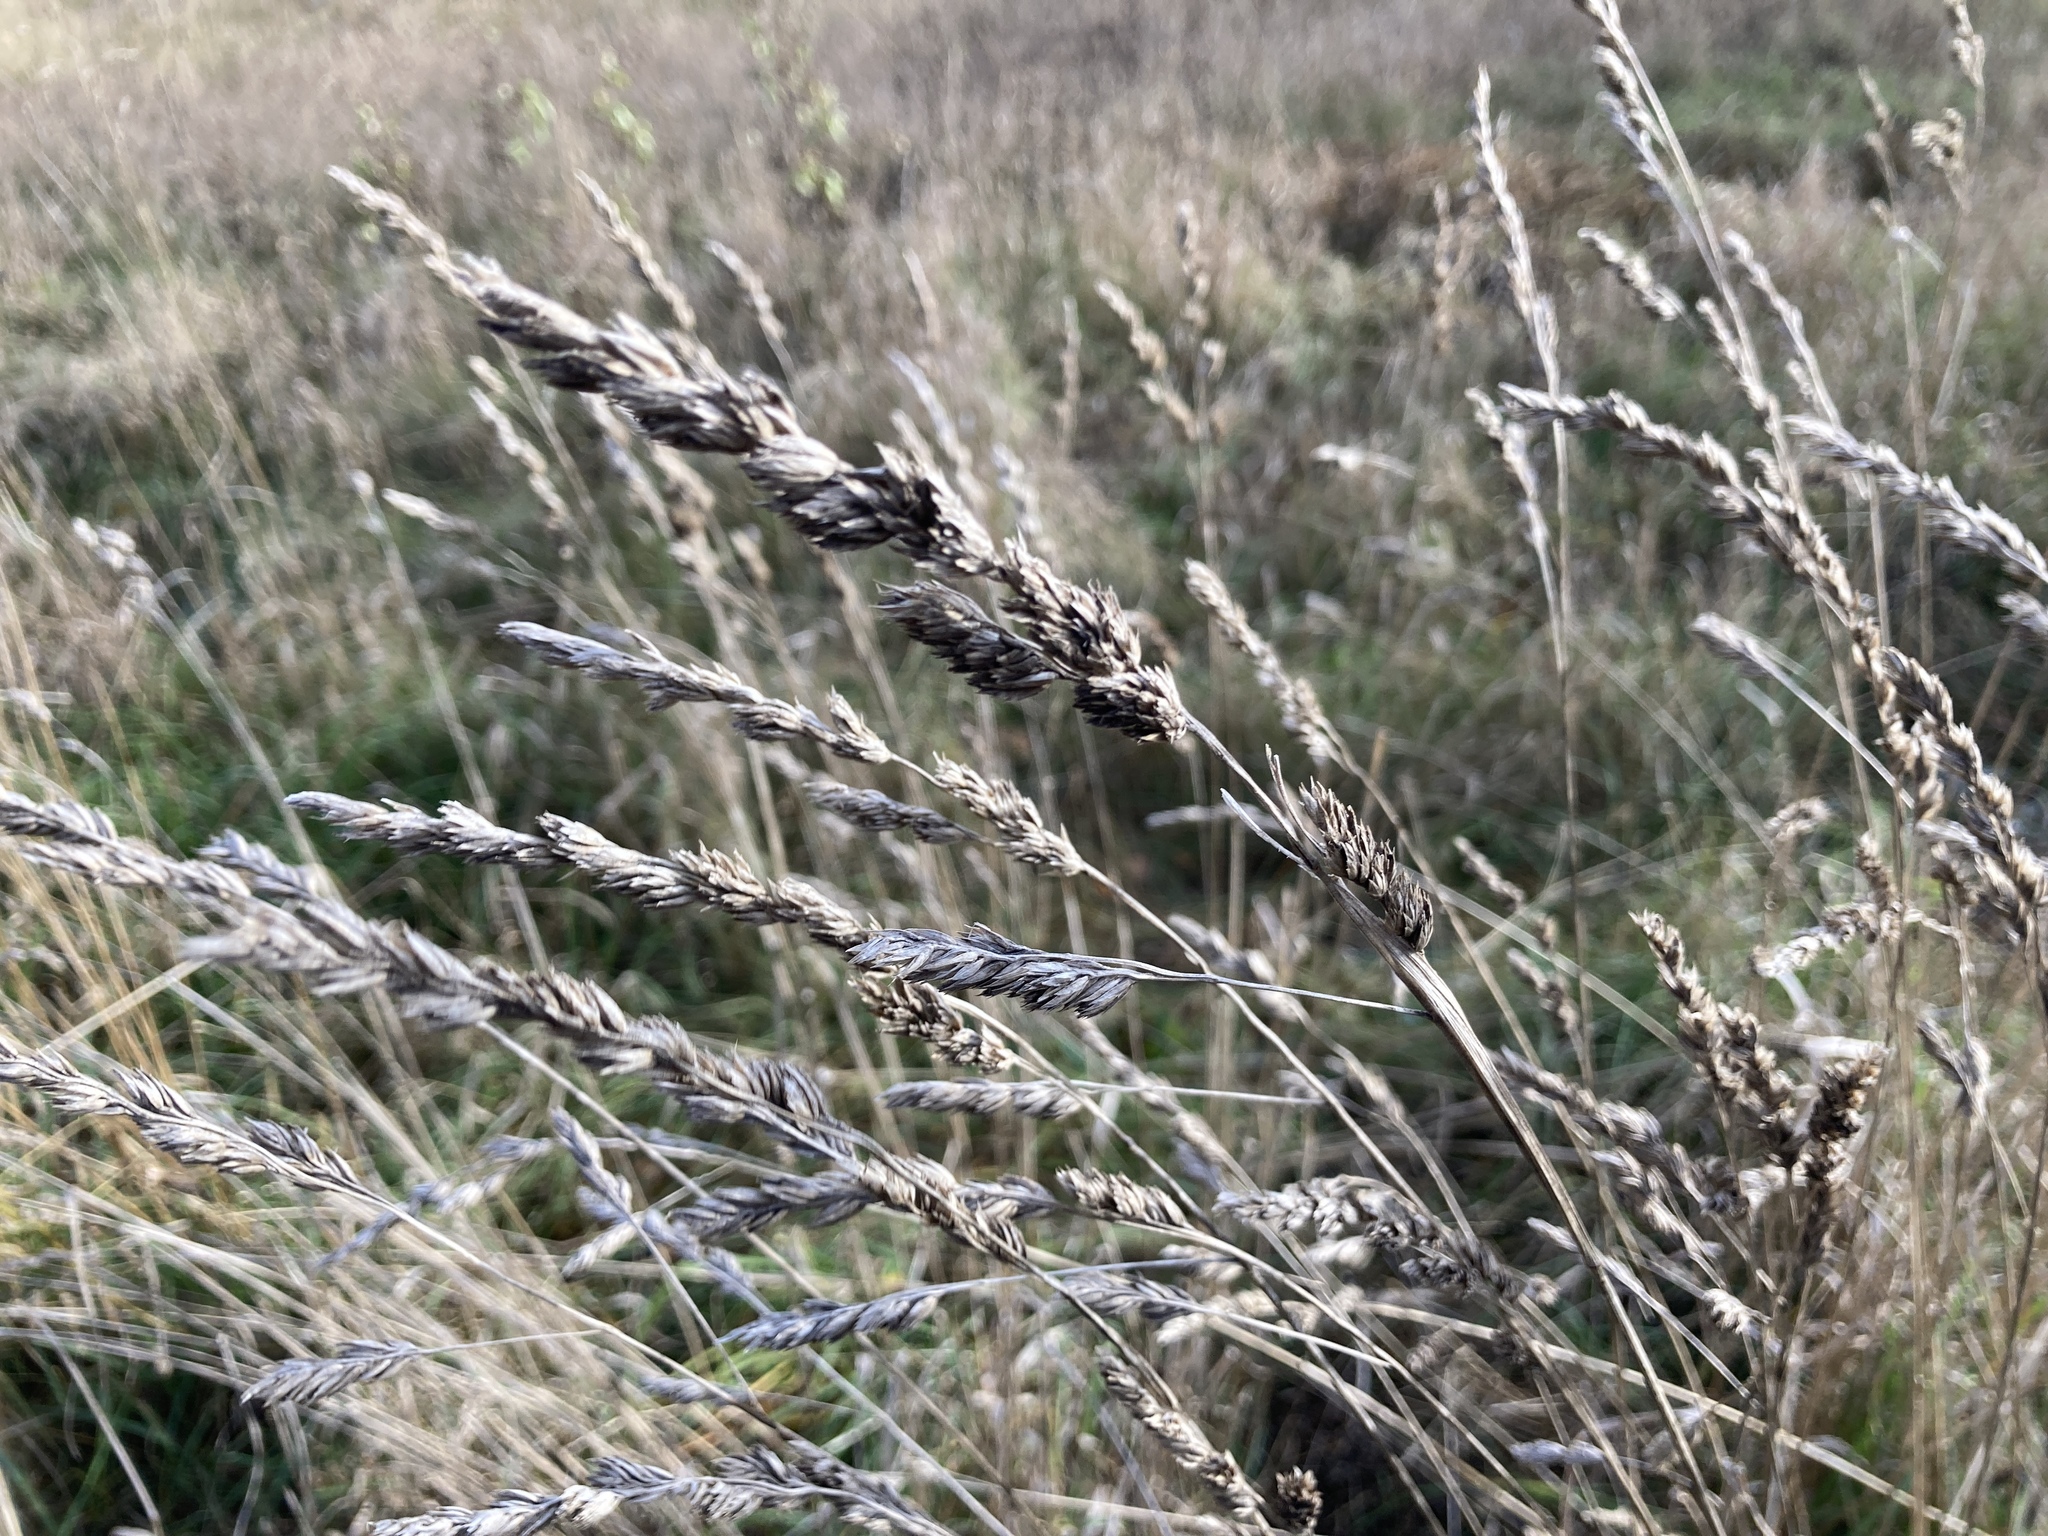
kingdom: Plantae
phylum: Tracheophyta
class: Liliopsida
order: Poales
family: Poaceae
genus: Dactylis
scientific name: Dactylis glomerata
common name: Orchardgrass
